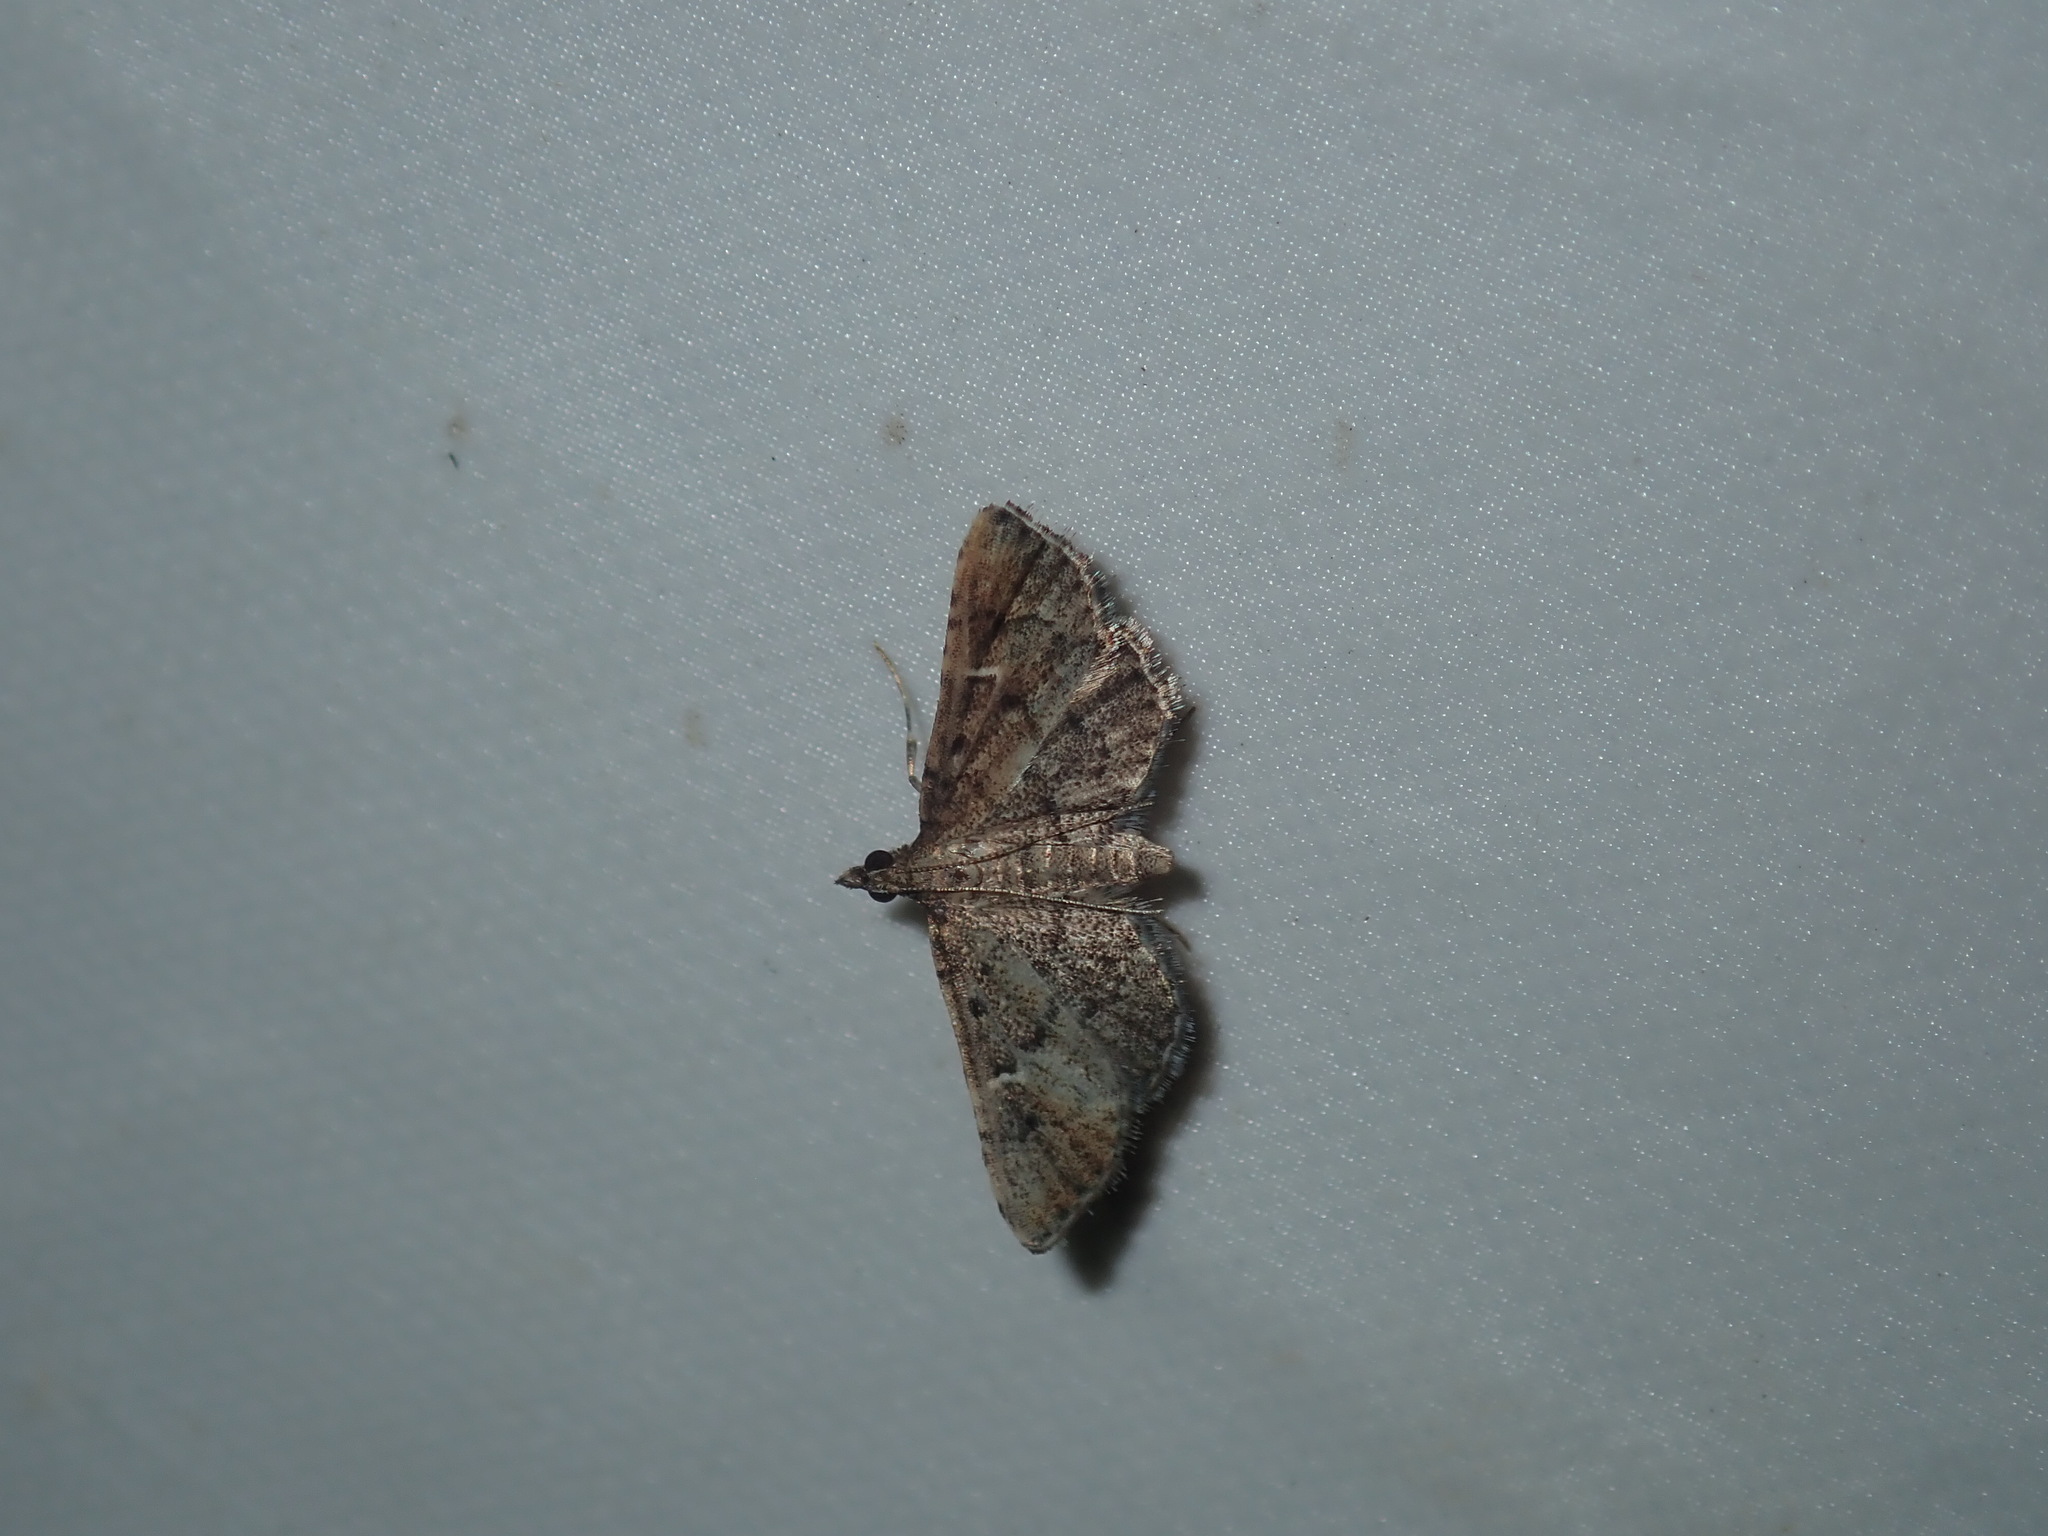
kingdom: Animalia
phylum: Arthropoda
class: Insecta
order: Lepidoptera
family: Crambidae
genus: Metasia
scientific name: Metasia capnochroa
